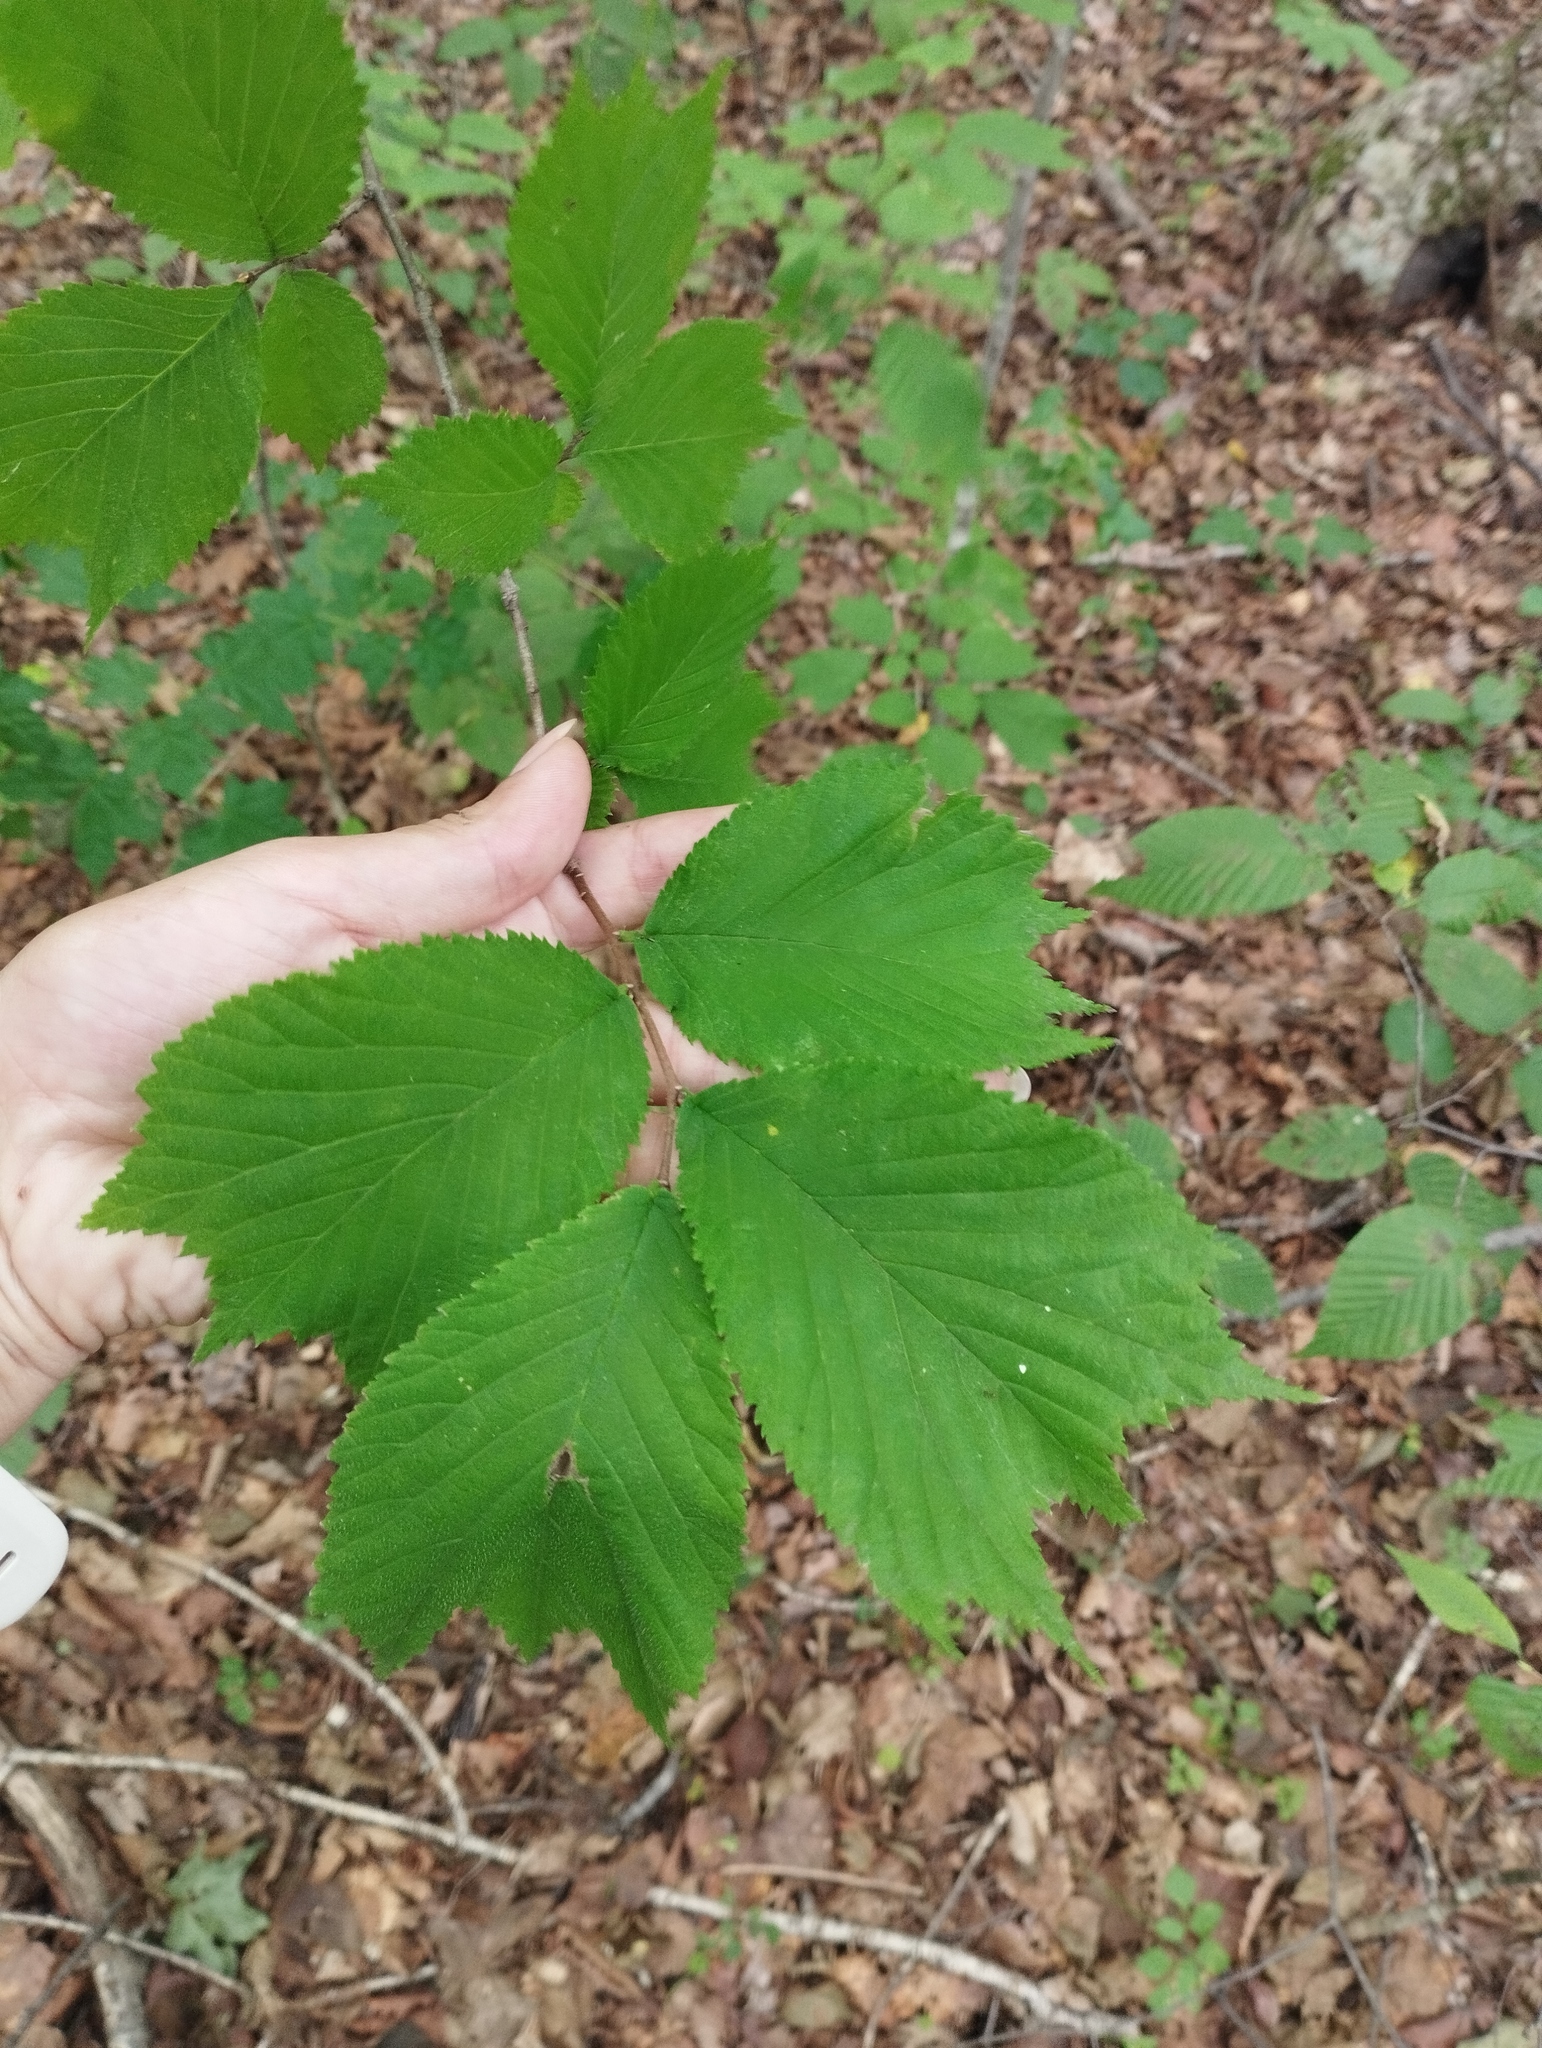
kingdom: Plantae
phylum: Tracheophyta
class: Magnoliopsida
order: Rosales
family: Ulmaceae
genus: Ulmus
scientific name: Ulmus laciniata
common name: Japanese elm
